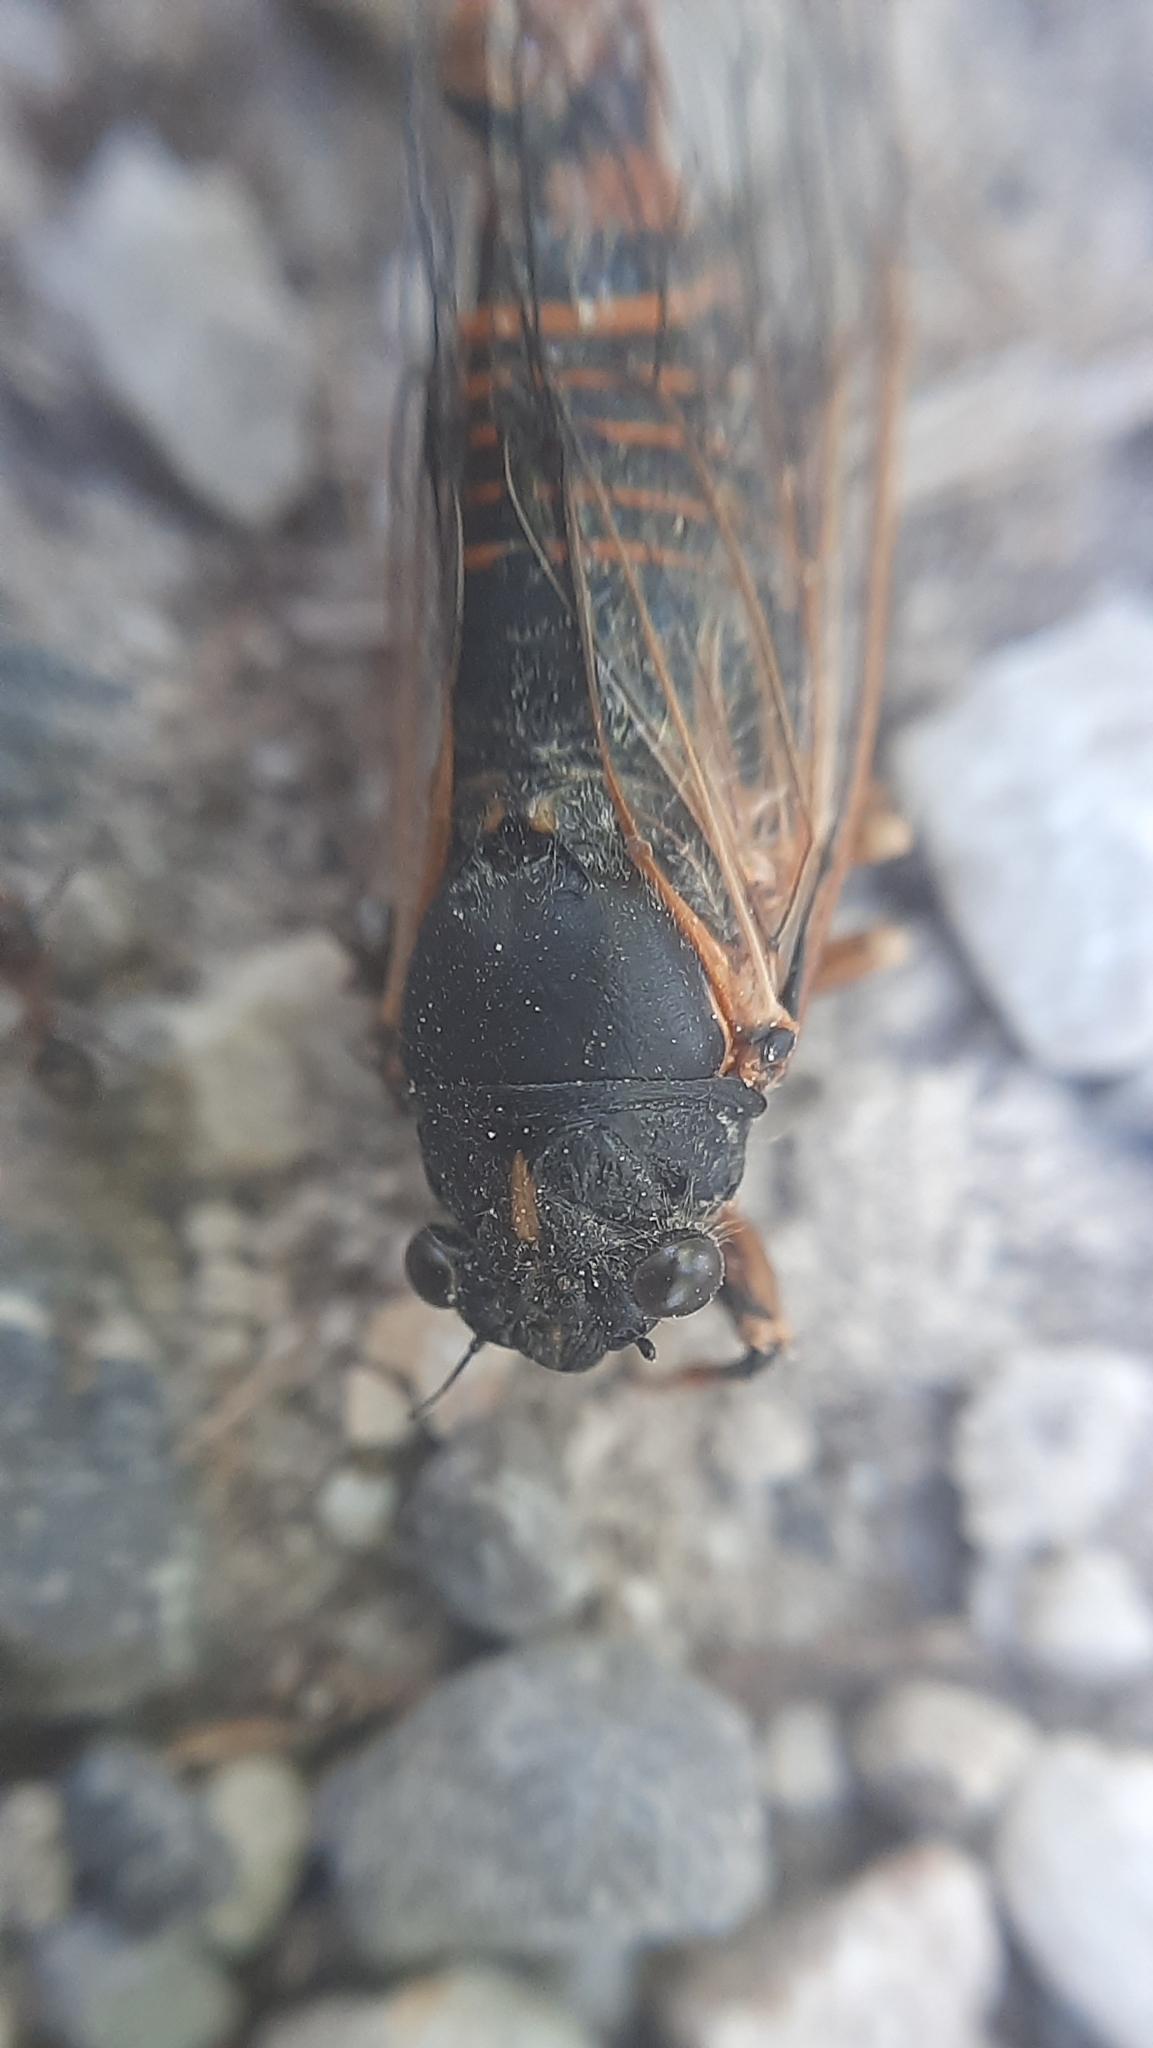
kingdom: Animalia
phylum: Arthropoda
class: Insecta
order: Hemiptera
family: Cicadidae
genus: Cicadetta
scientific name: Cicadetta
